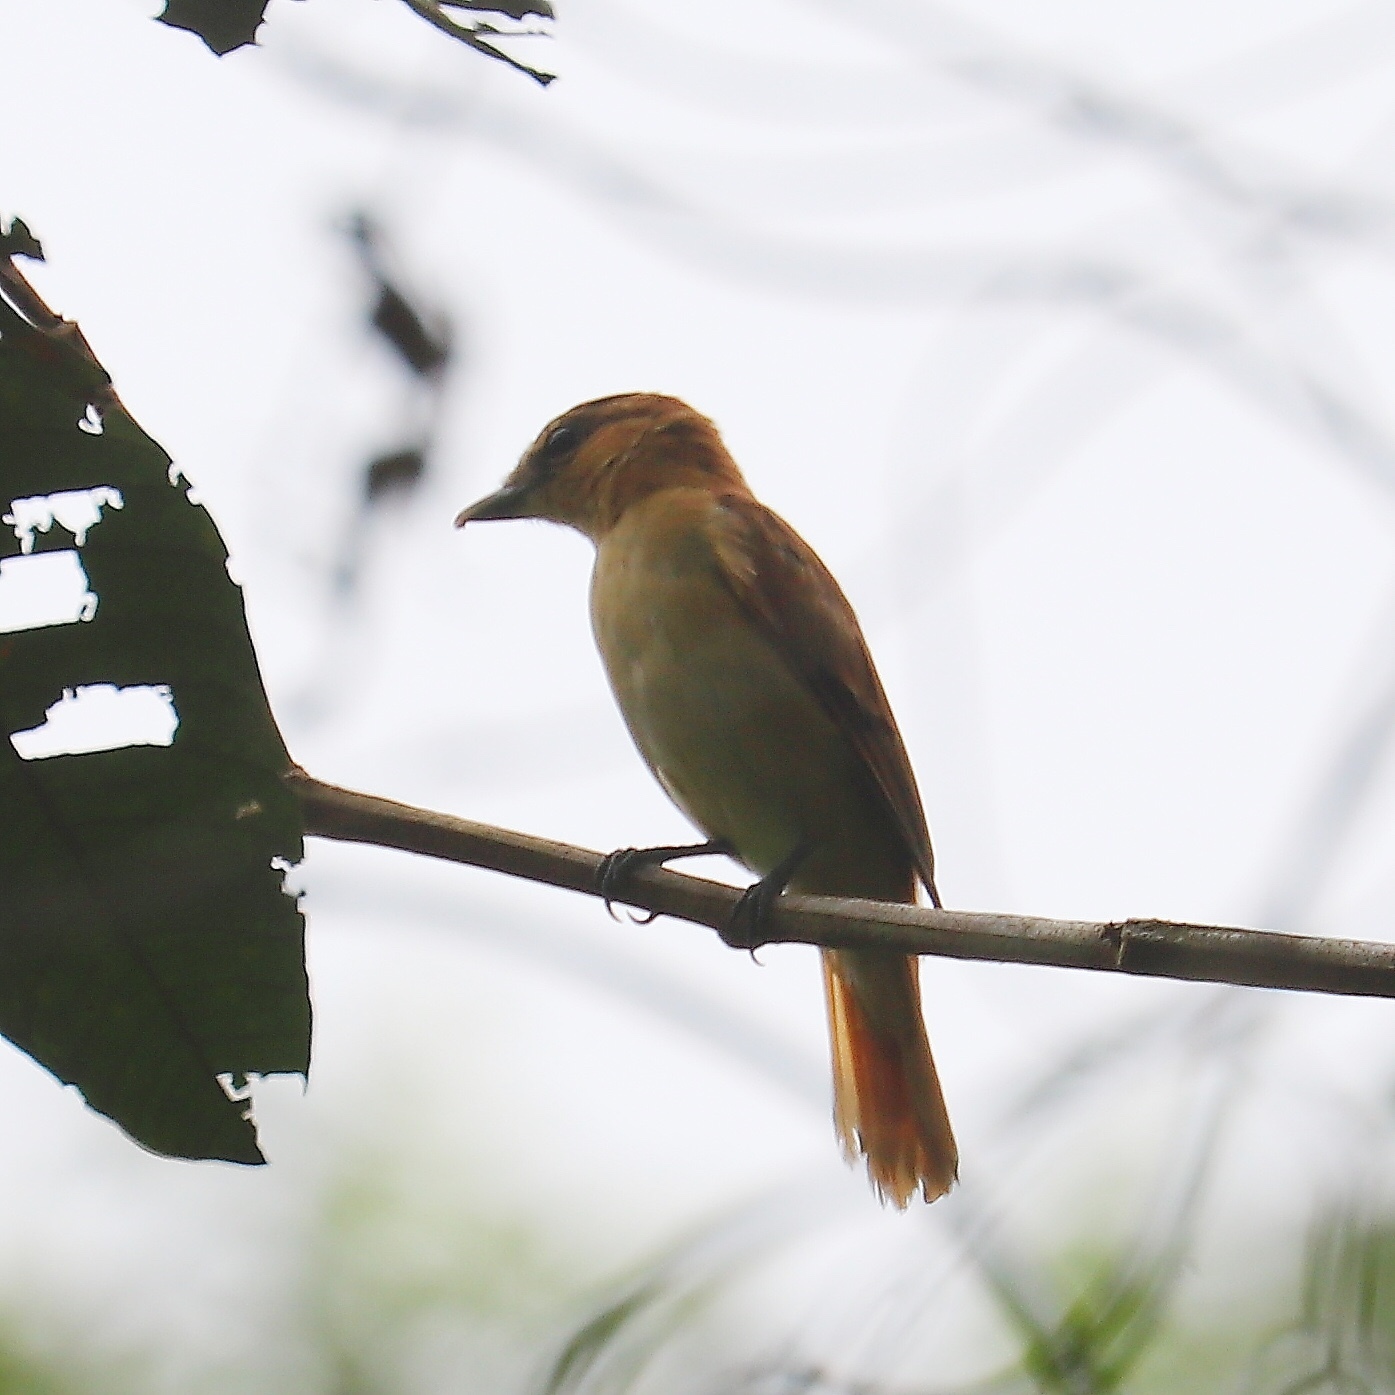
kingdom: Animalia
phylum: Chordata
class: Aves
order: Passeriformes
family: Cotingidae
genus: Pachyramphus
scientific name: Pachyramphus cinnamomeus
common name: Cinnamon becard
